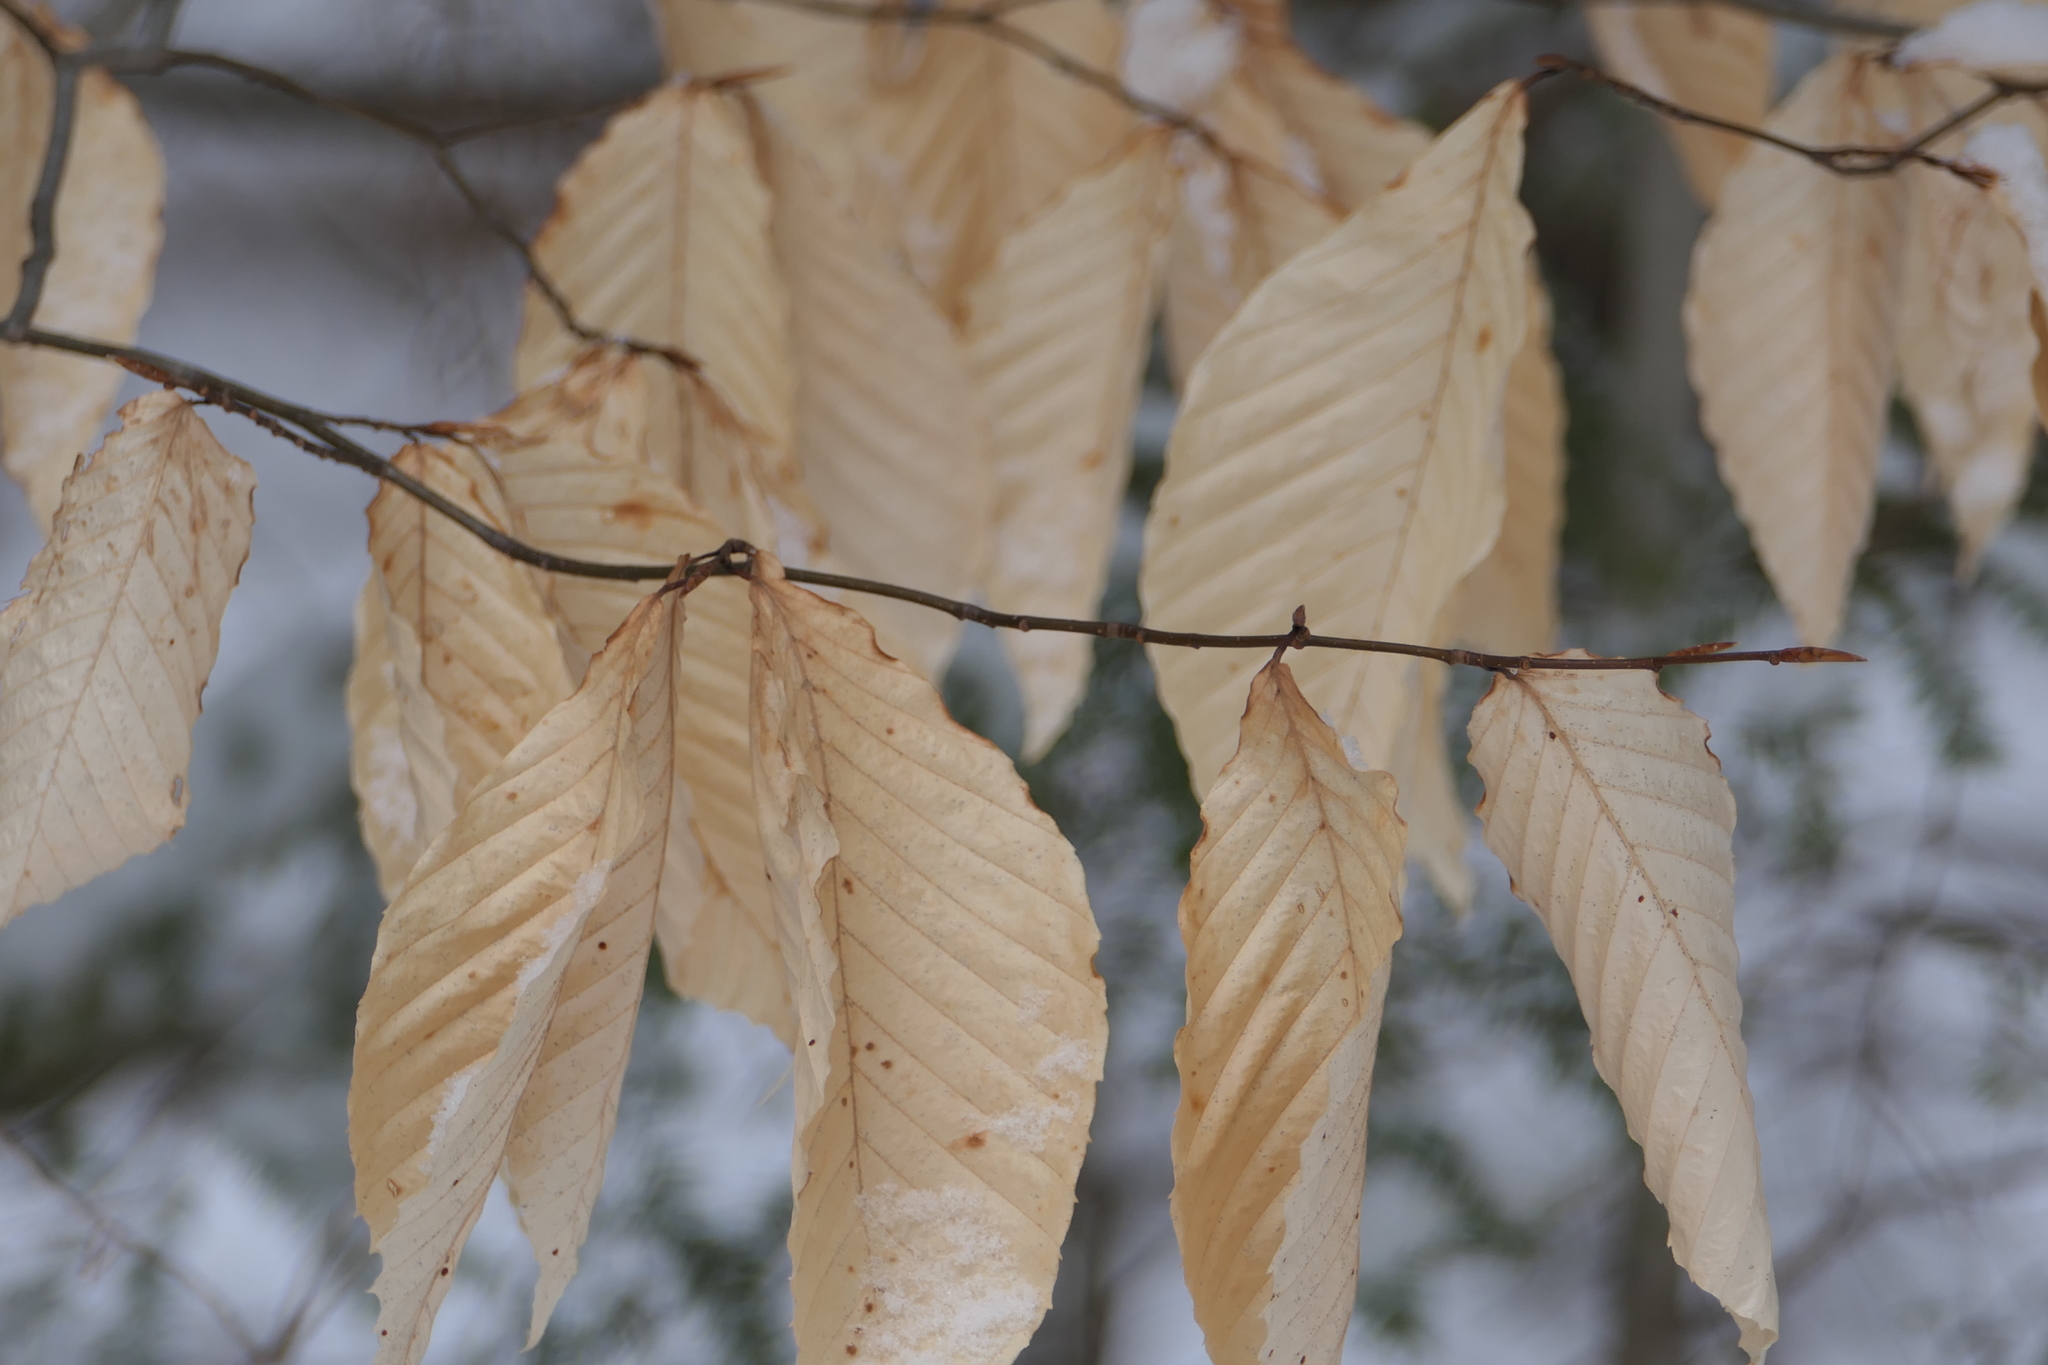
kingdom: Plantae
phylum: Tracheophyta
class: Magnoliopsida
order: Fagales
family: Fagaceae
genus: Fagus
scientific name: Fagus grandifolia
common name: American beech
